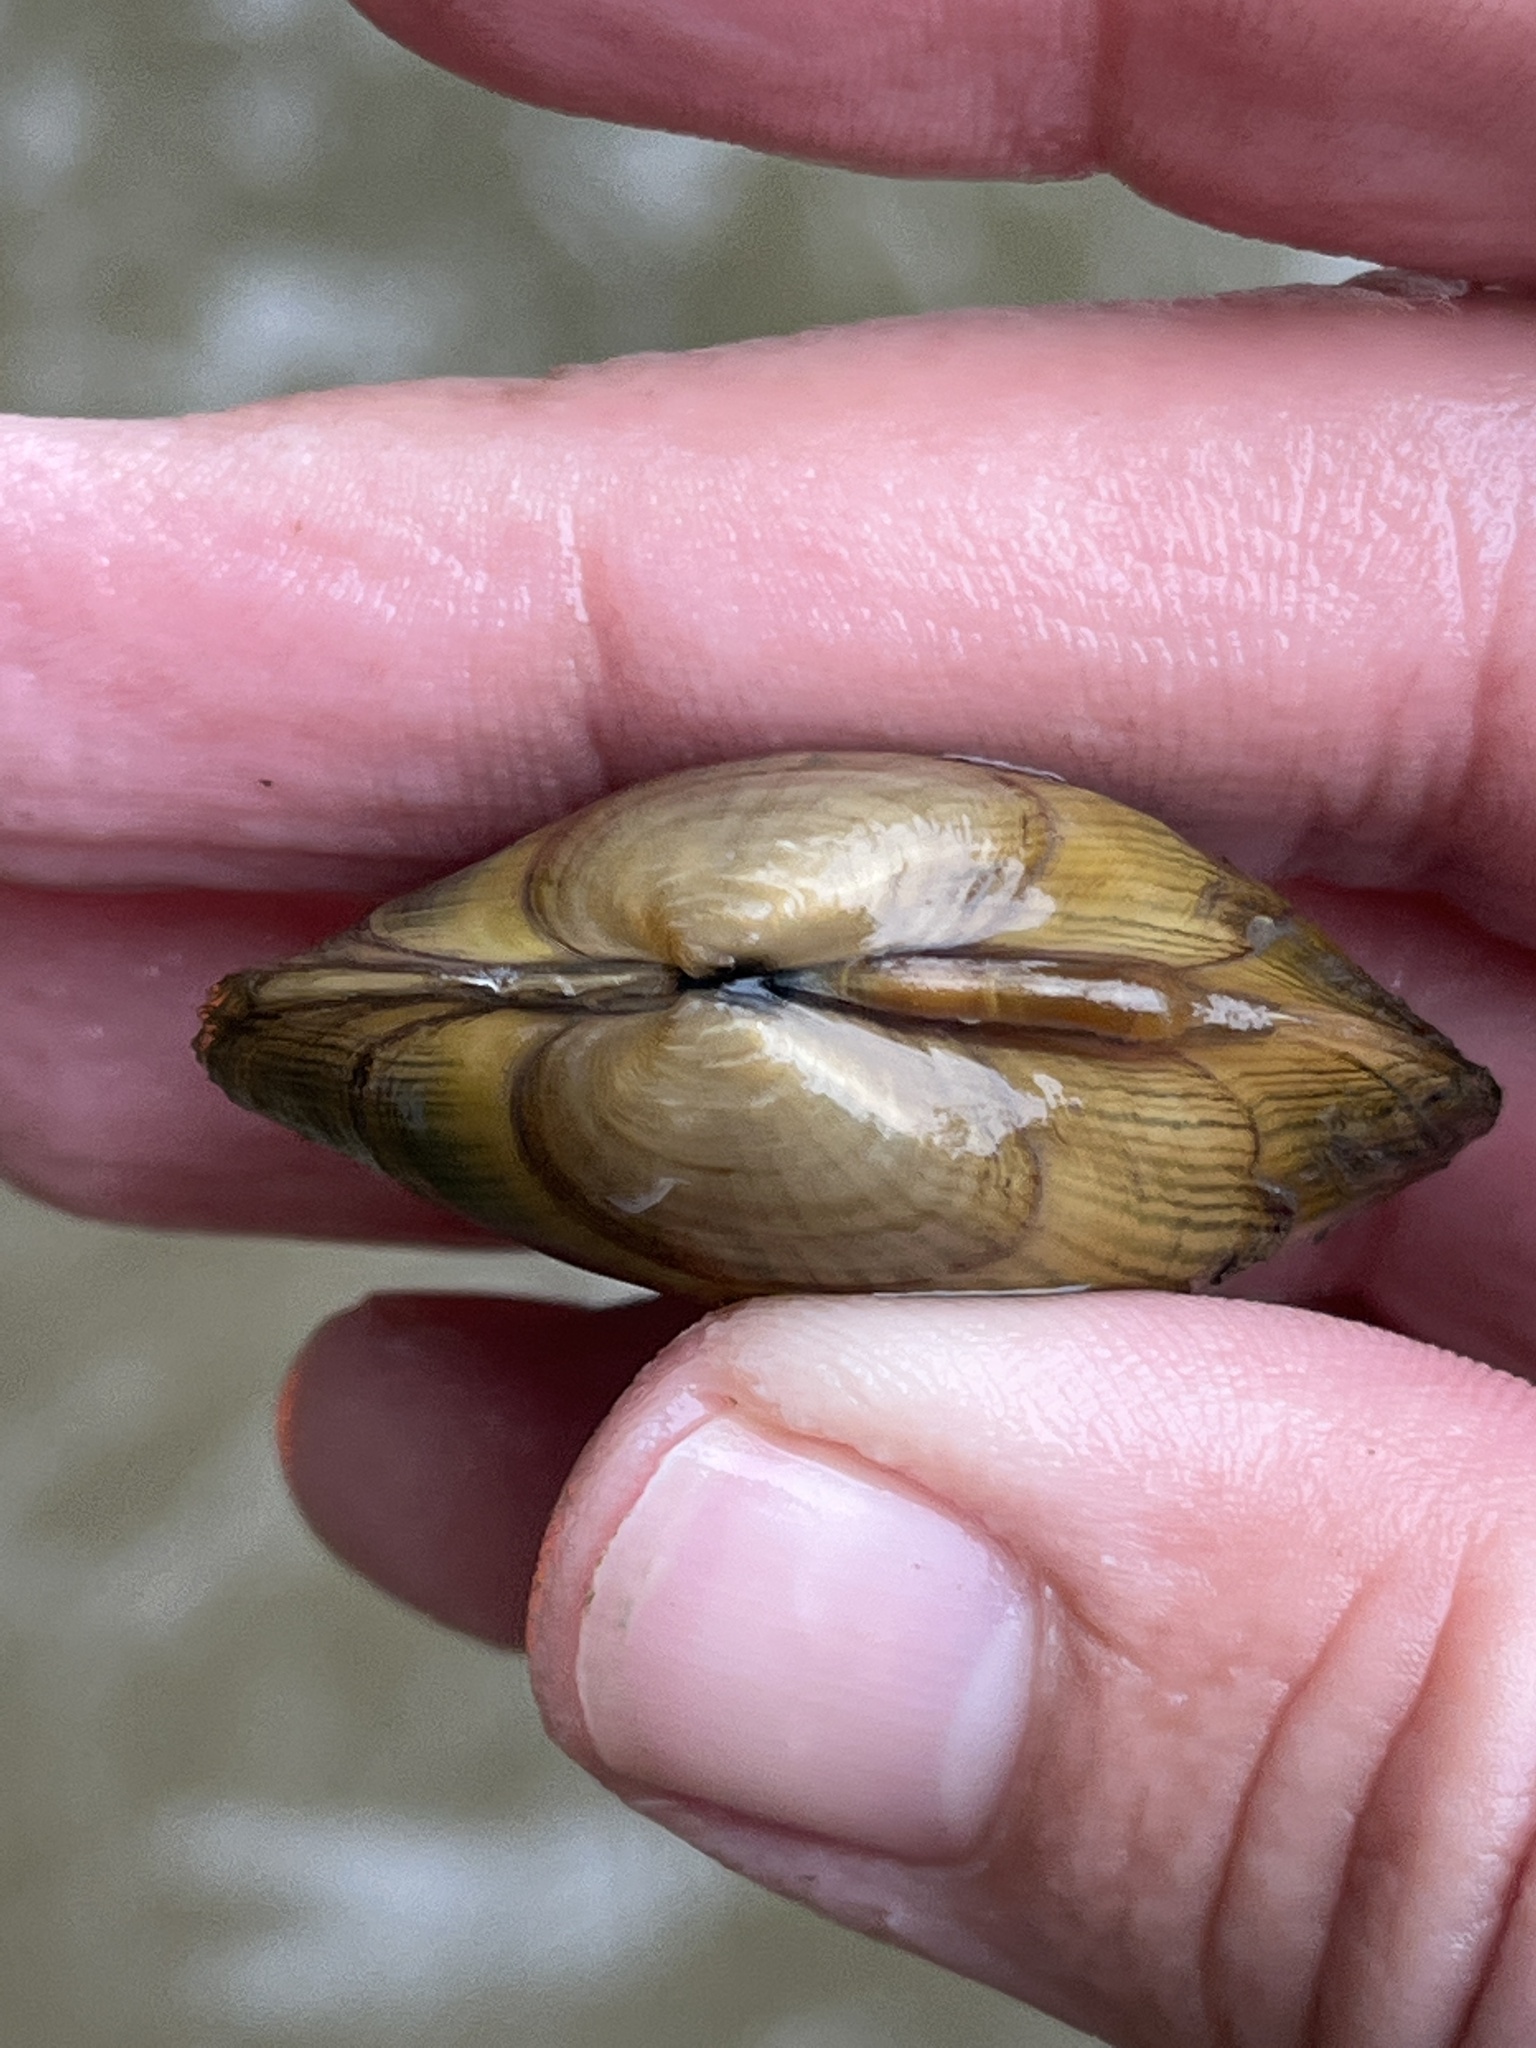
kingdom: Animalia
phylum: Mollusca
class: Bivalvia
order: Unionida
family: Unionidae
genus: Lampsilis
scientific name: Lampsilis fasciola
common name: Wavyrayed lampmussel
